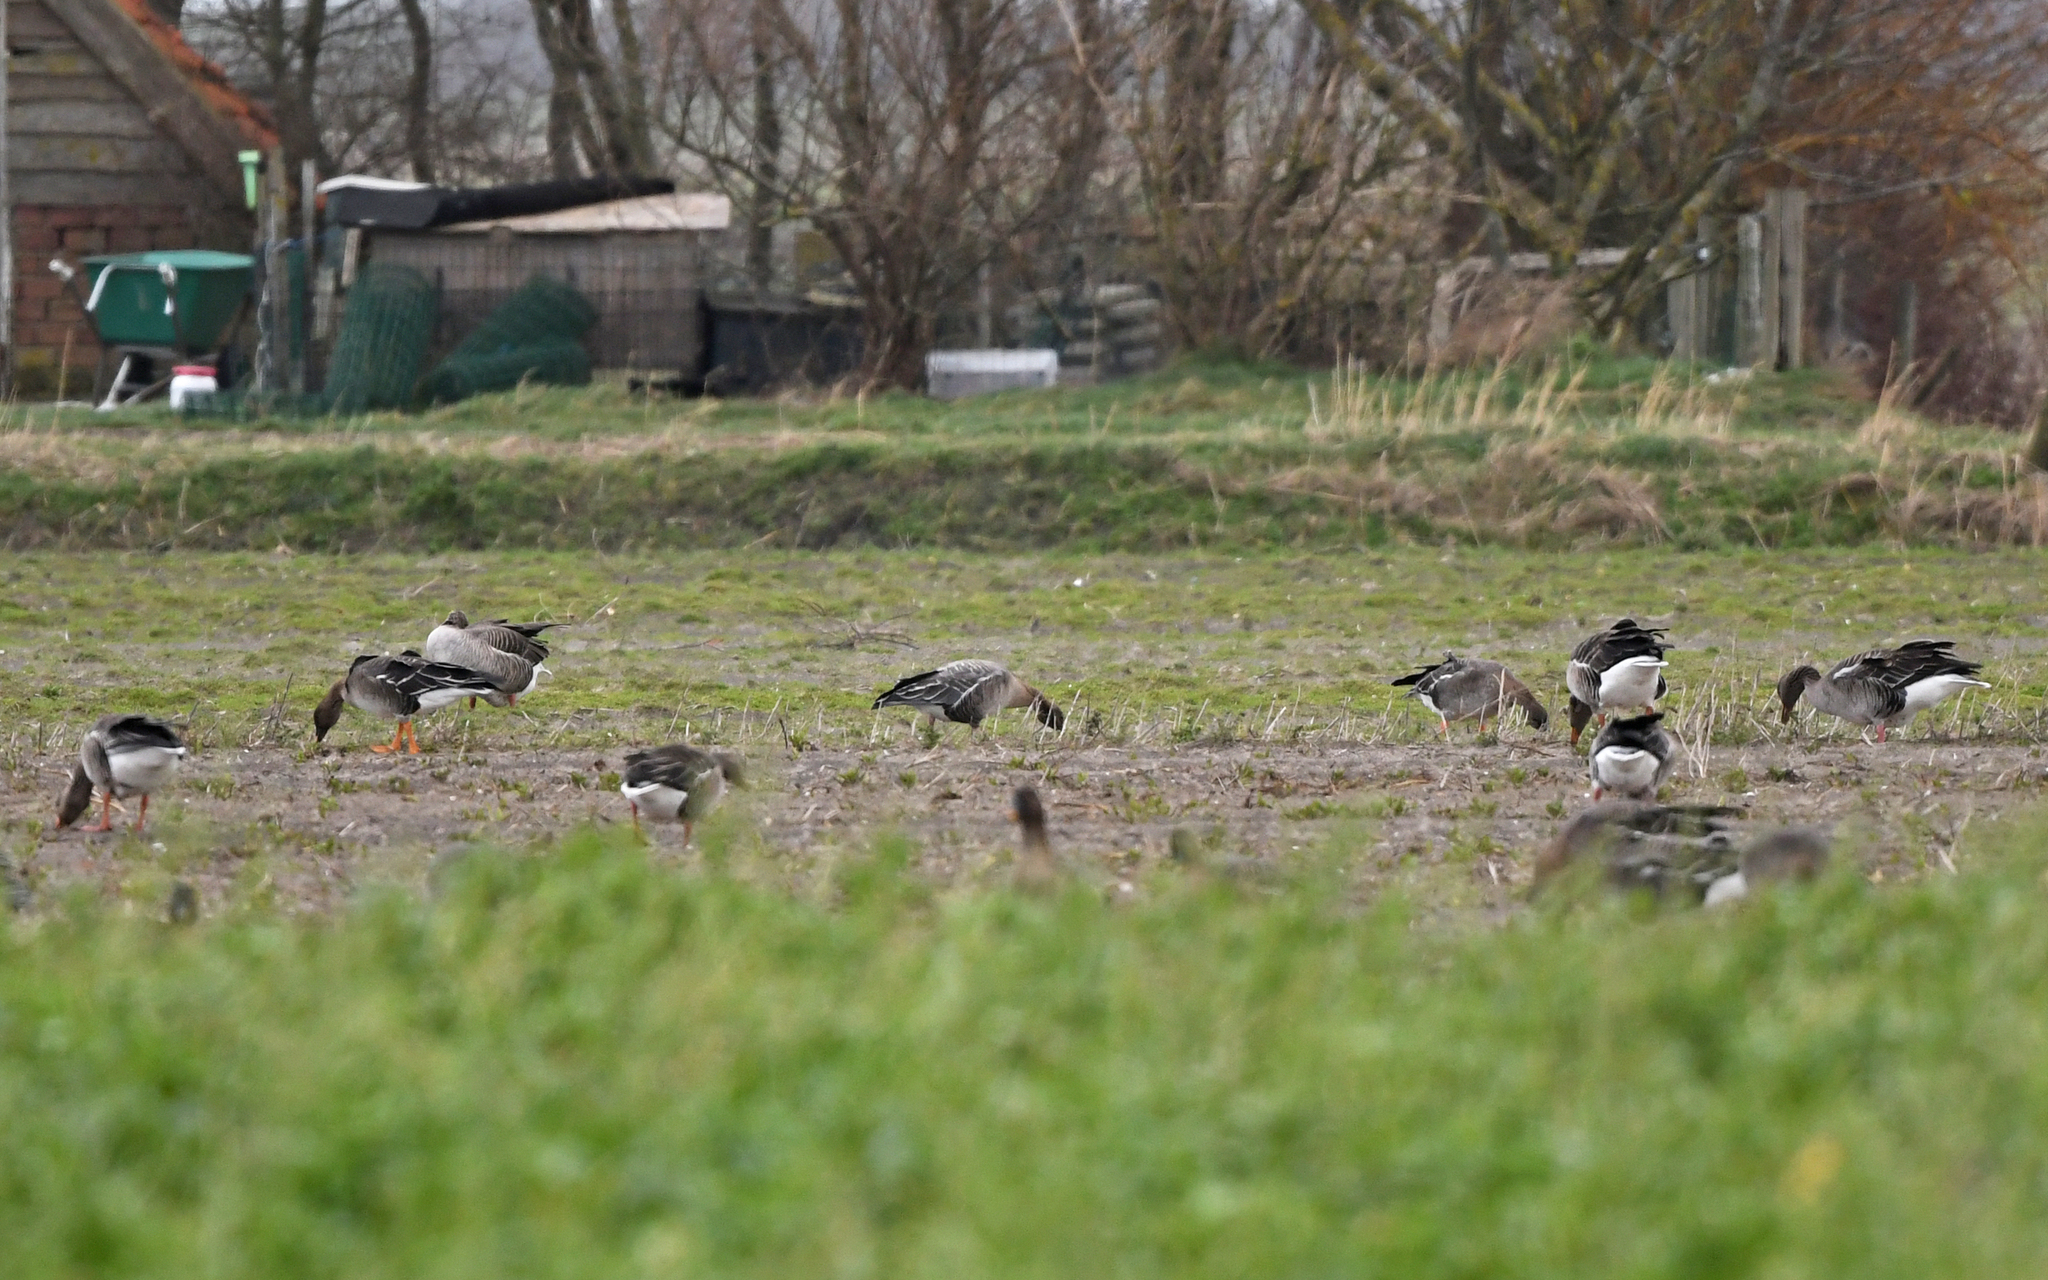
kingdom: Animalia
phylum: Chordata
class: Aves
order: Anseriformes
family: Anatidae
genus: Anser
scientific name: Anser brachyrhynchus
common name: Pink-footed goose
